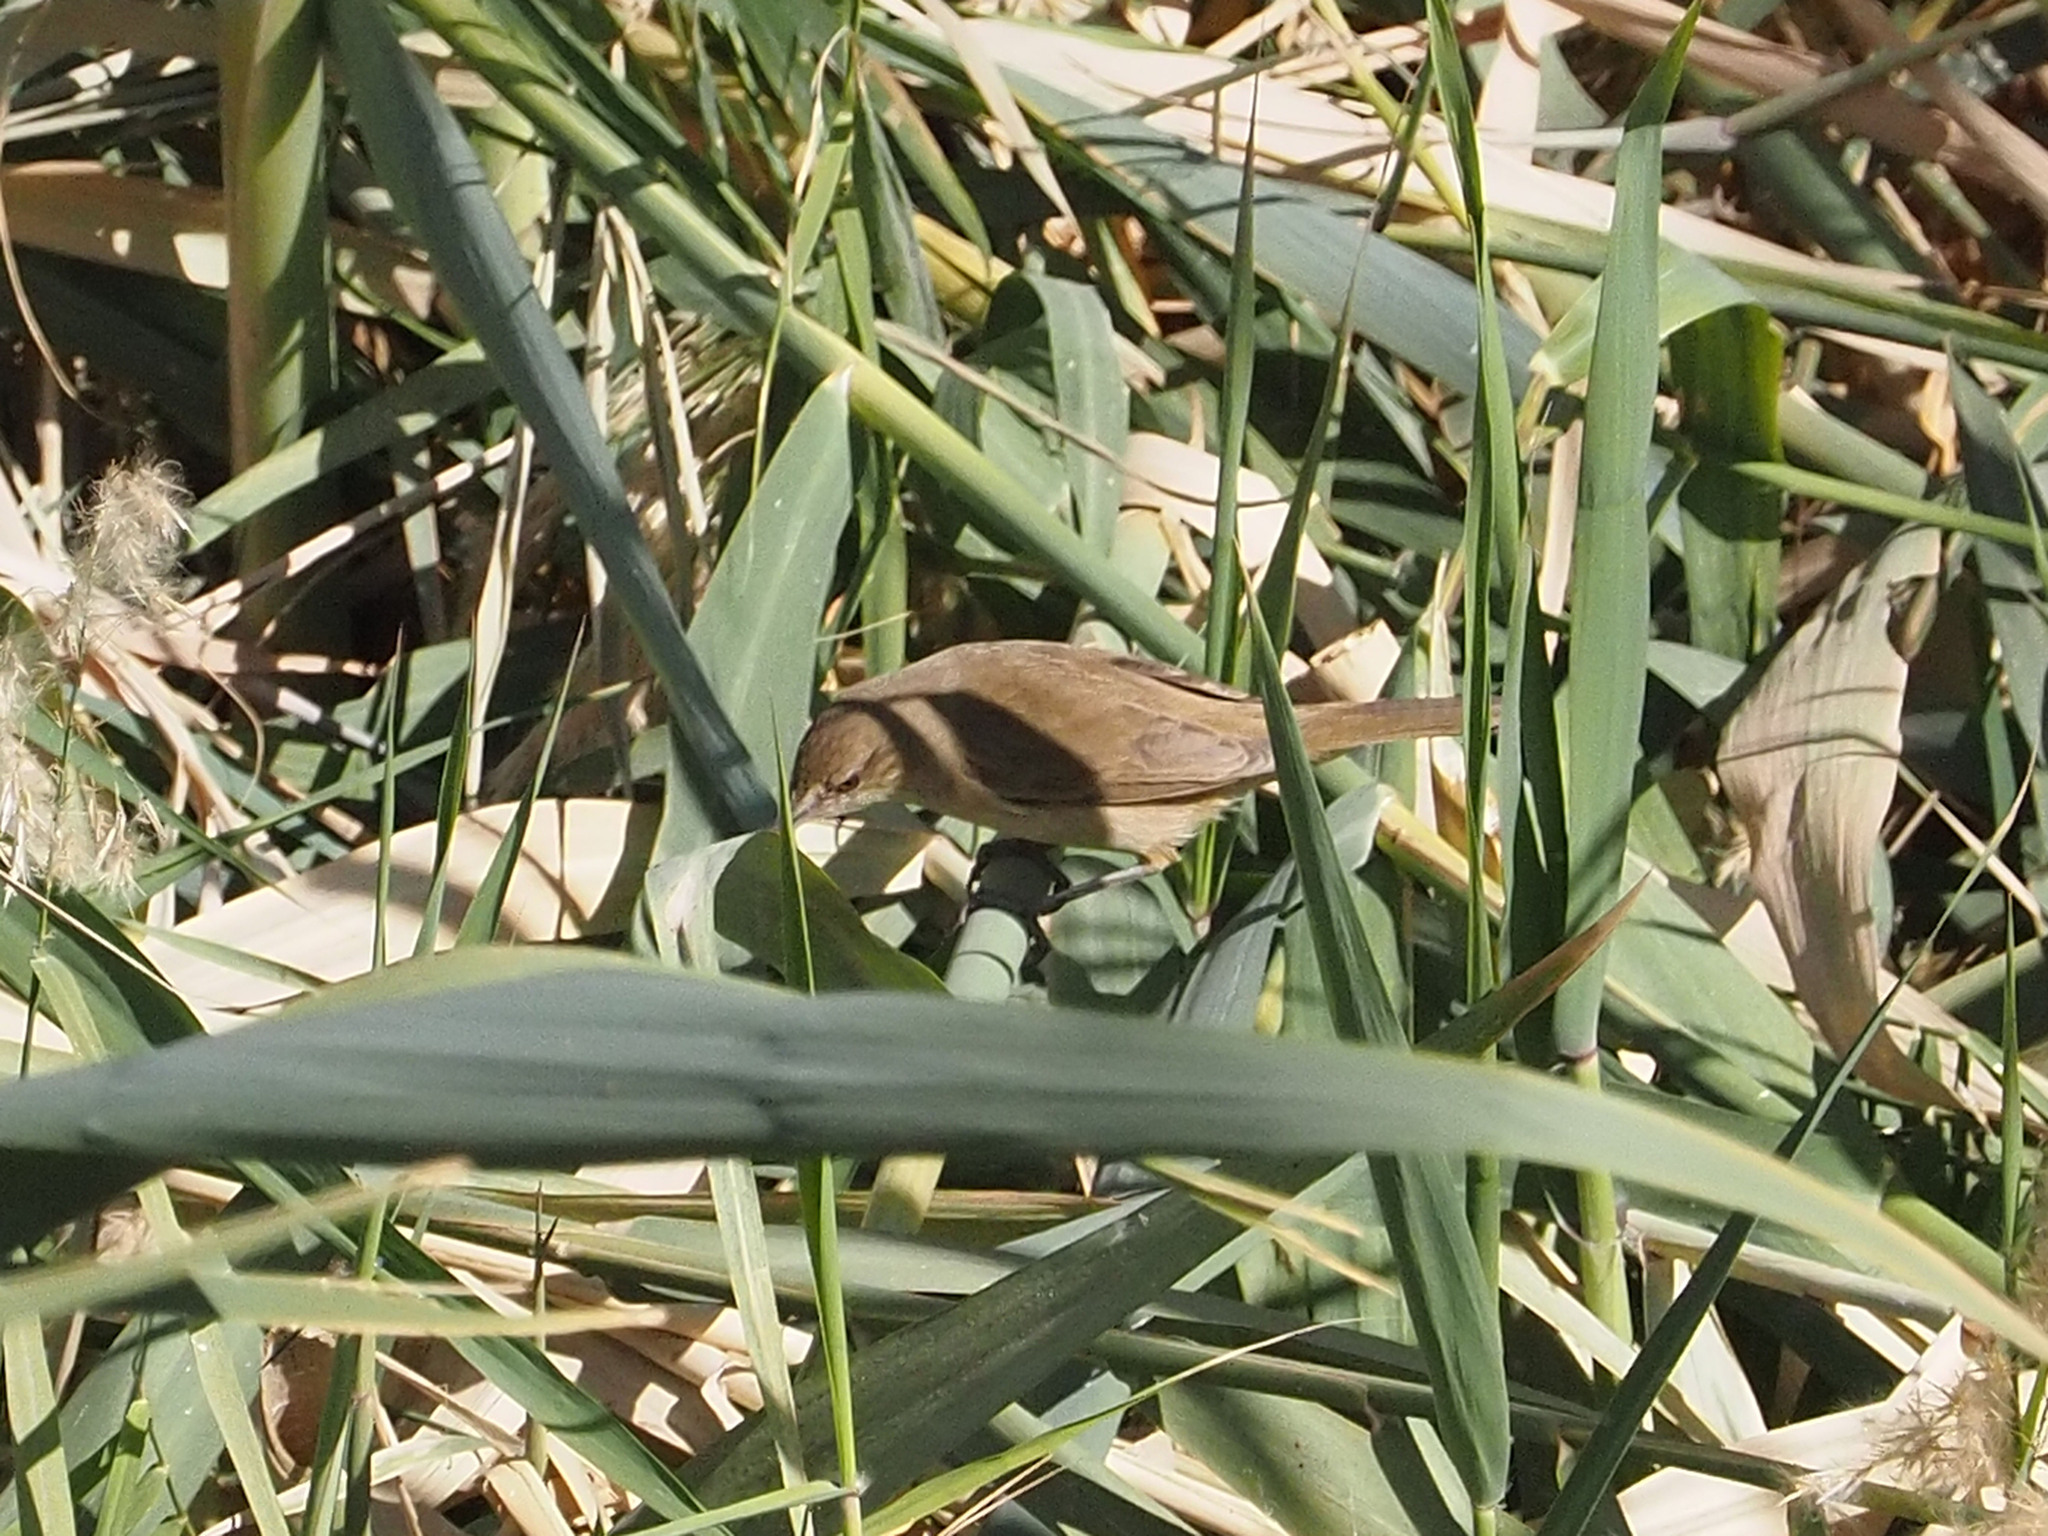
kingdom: Animalia
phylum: Chordata
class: Aves
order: Passeriformes
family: Acrocephalidae
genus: Acrocephalus
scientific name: Acrocephalus stentoreus
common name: Clamorous reed warbler
